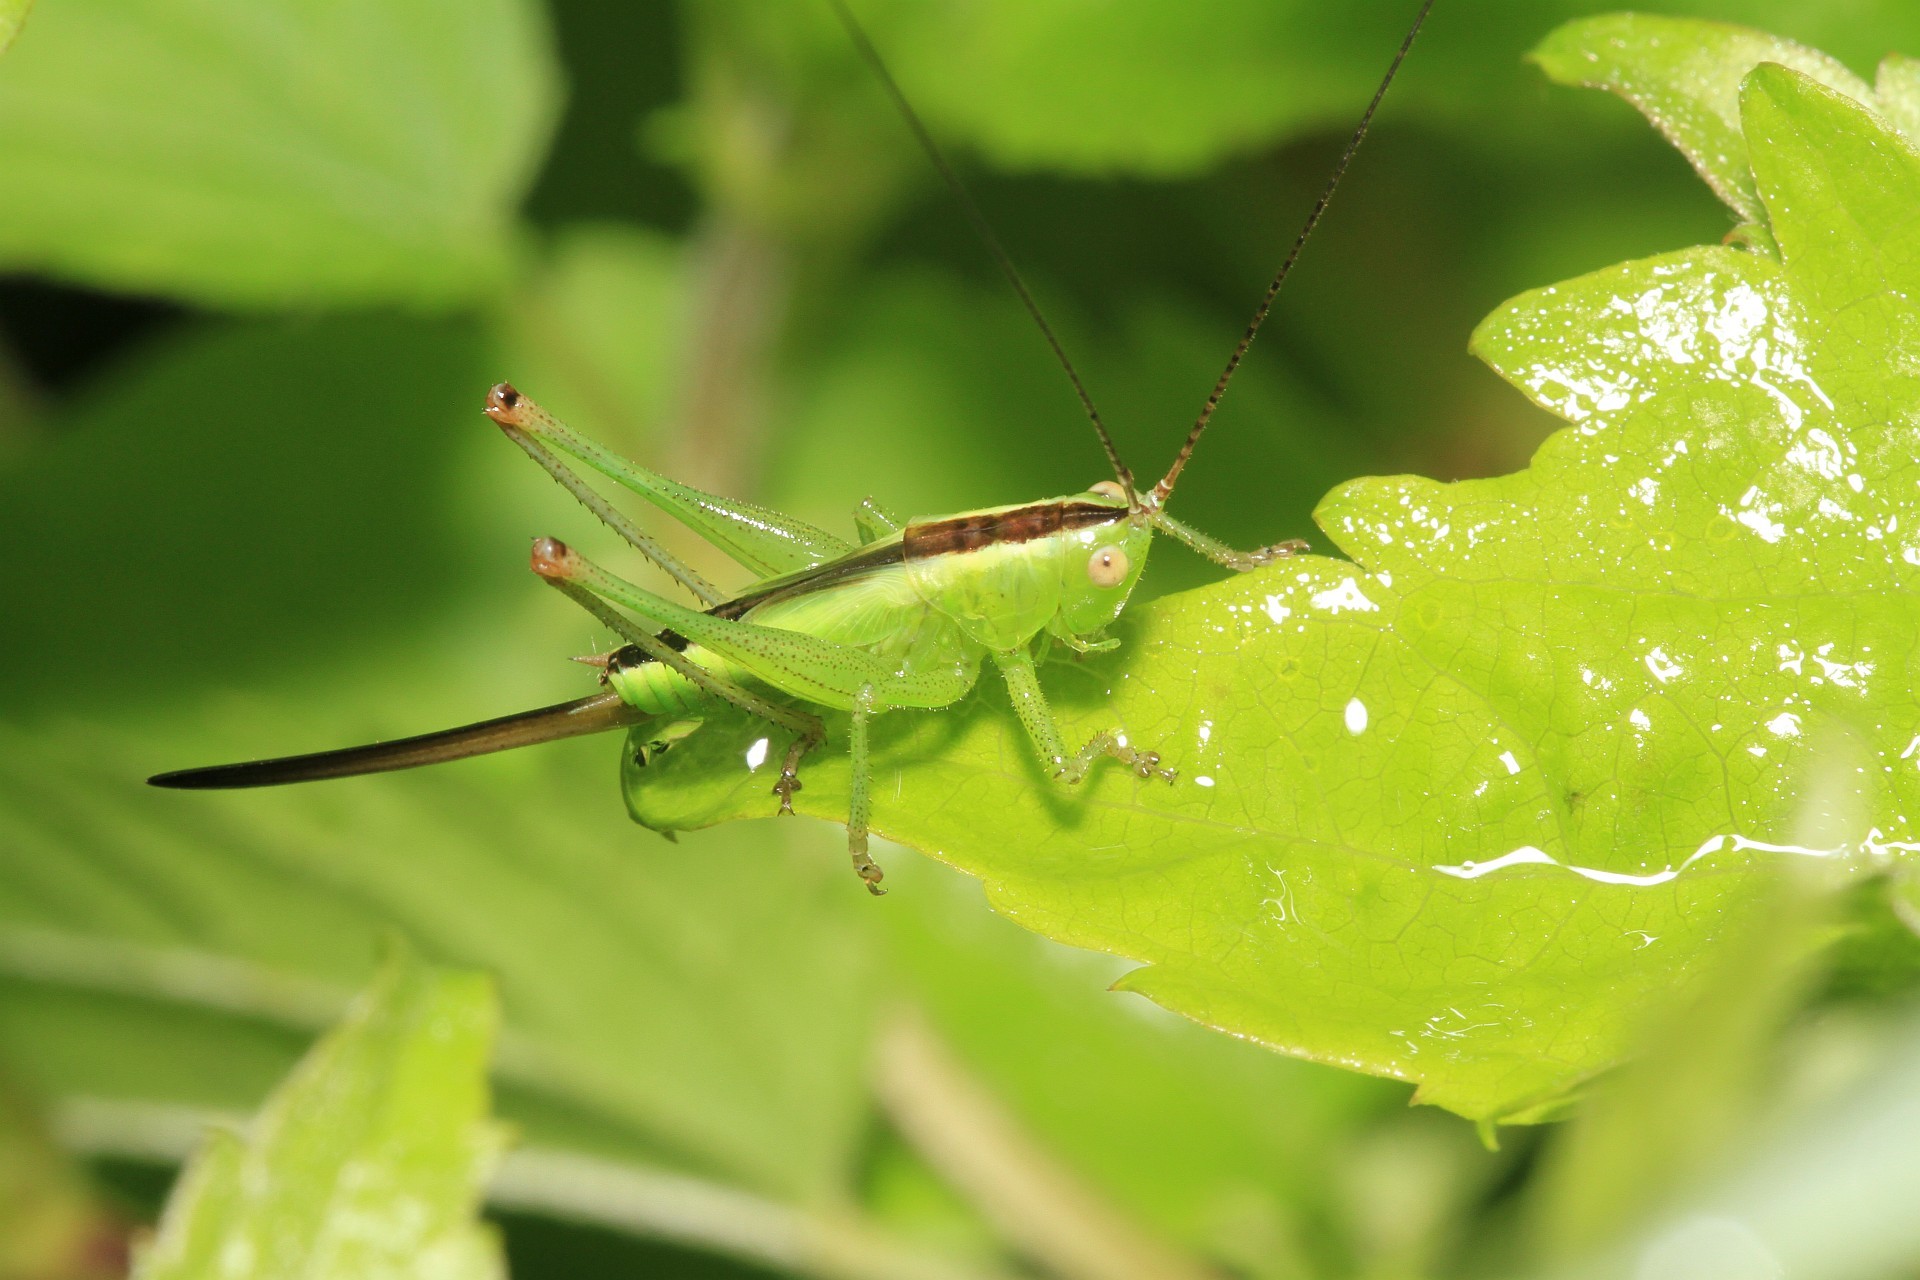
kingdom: Animalia
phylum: Arthropoda
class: Insecta
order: Orthoptera
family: Tettigoniidae
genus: Conocephalus
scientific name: Conocephalus fuscus
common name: Long-winged conehead
